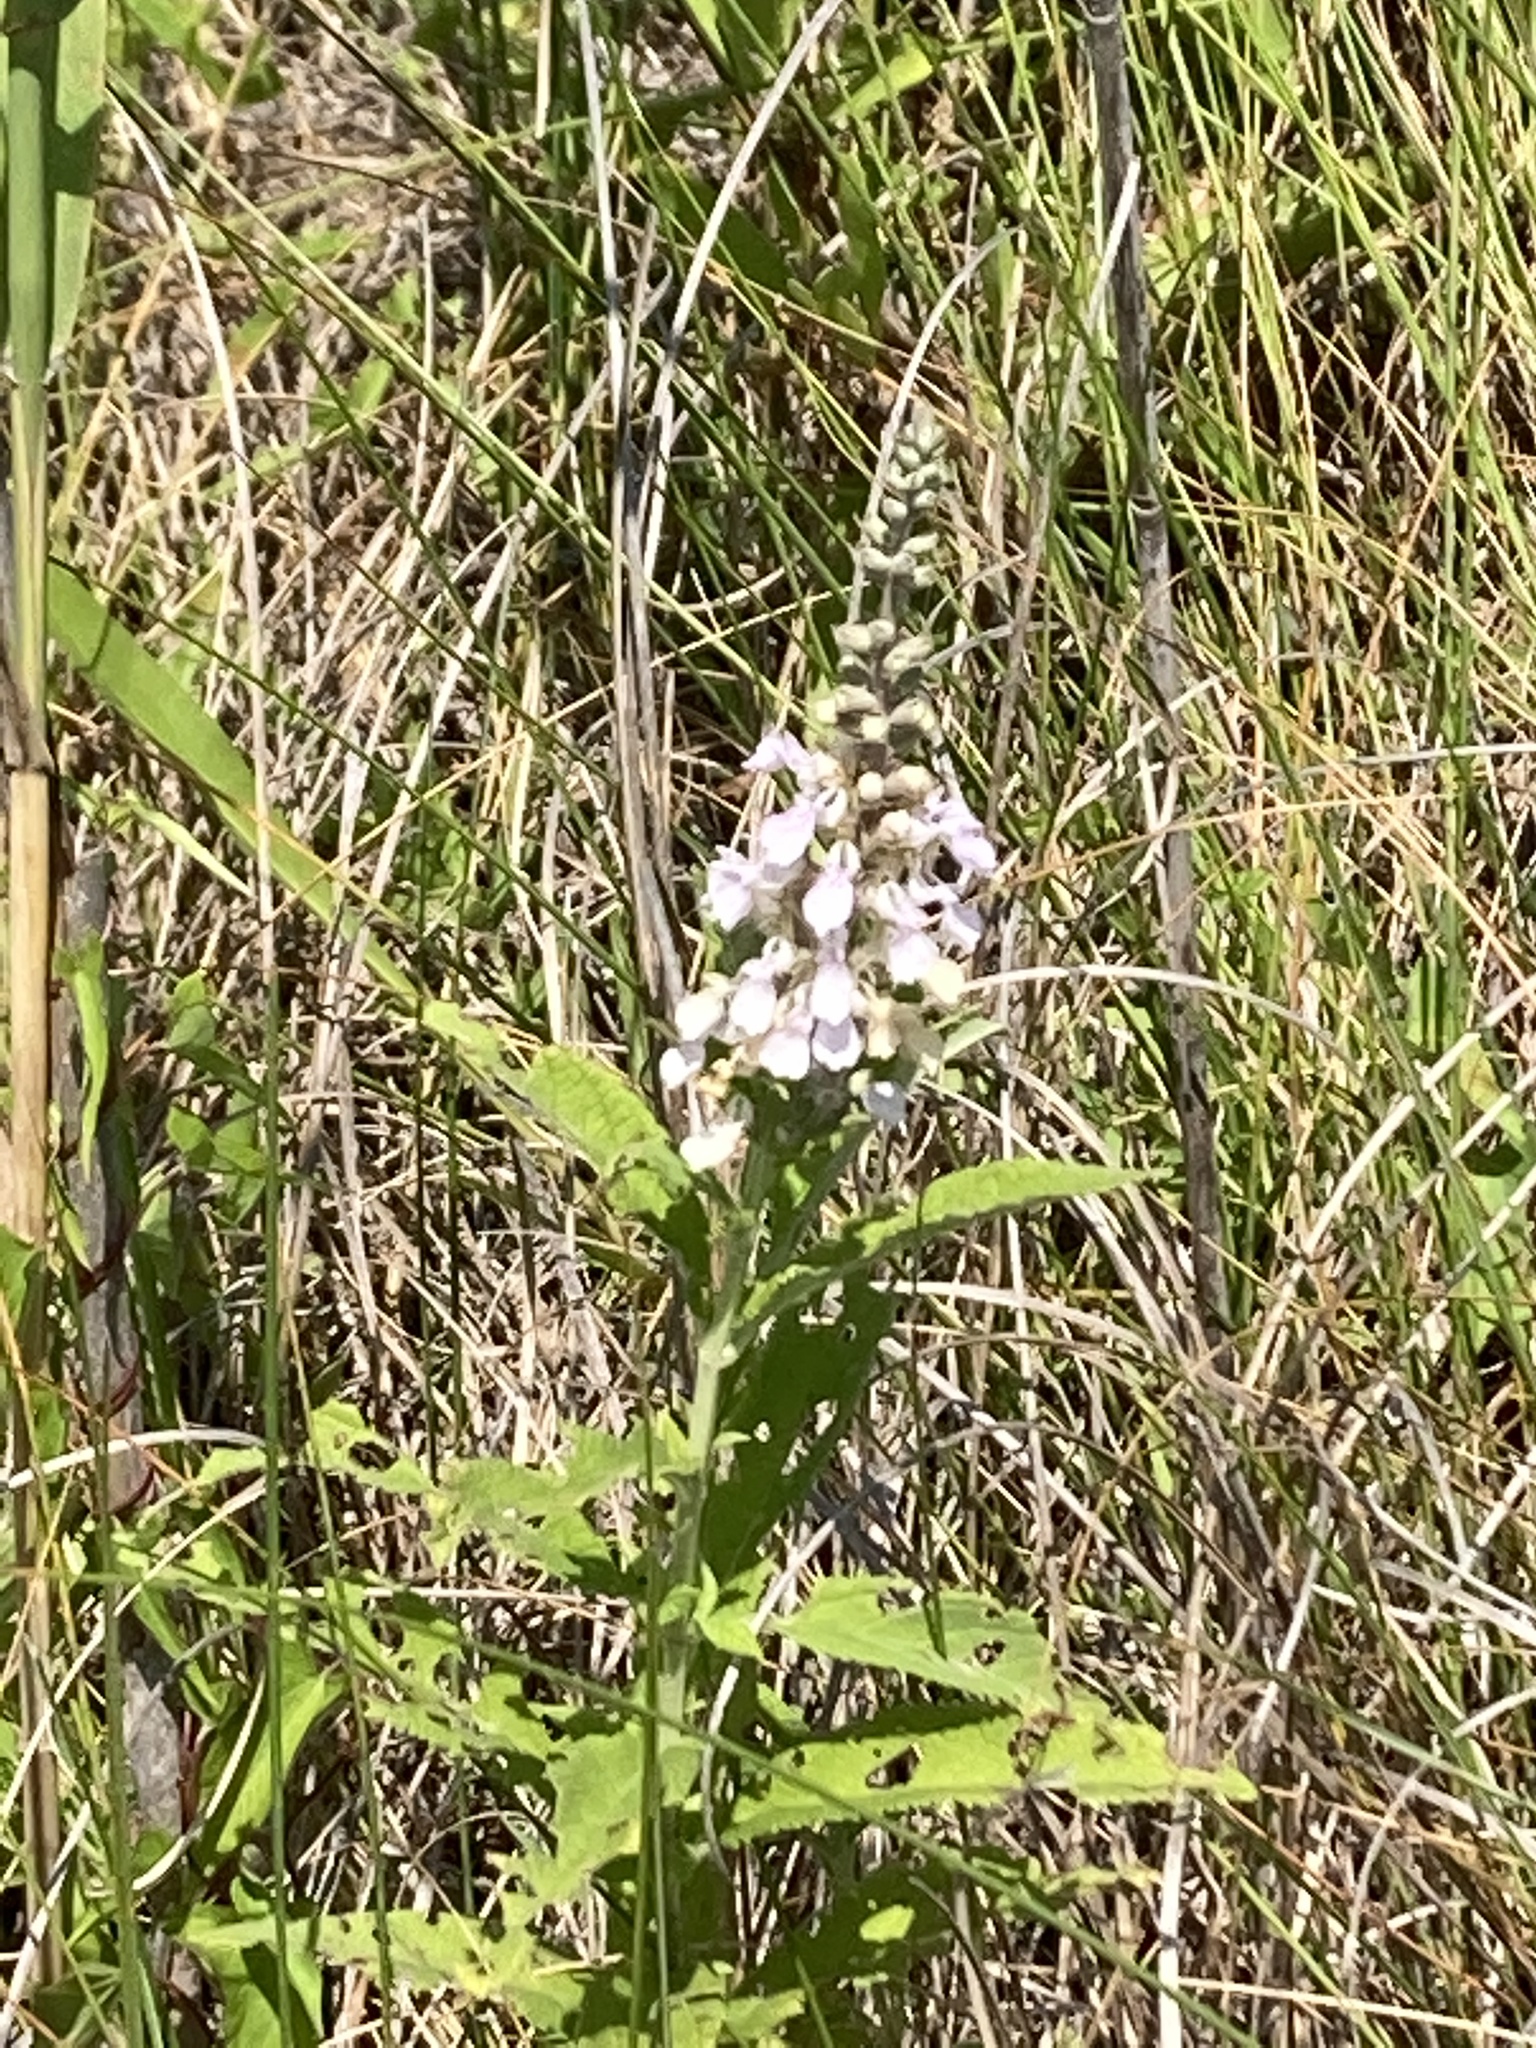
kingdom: Plantae
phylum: Tracheophyta
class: Magnoliopsida
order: Lamiales
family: Lamiaceae
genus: Teucrium
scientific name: Teucrium canadense
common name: American germander
